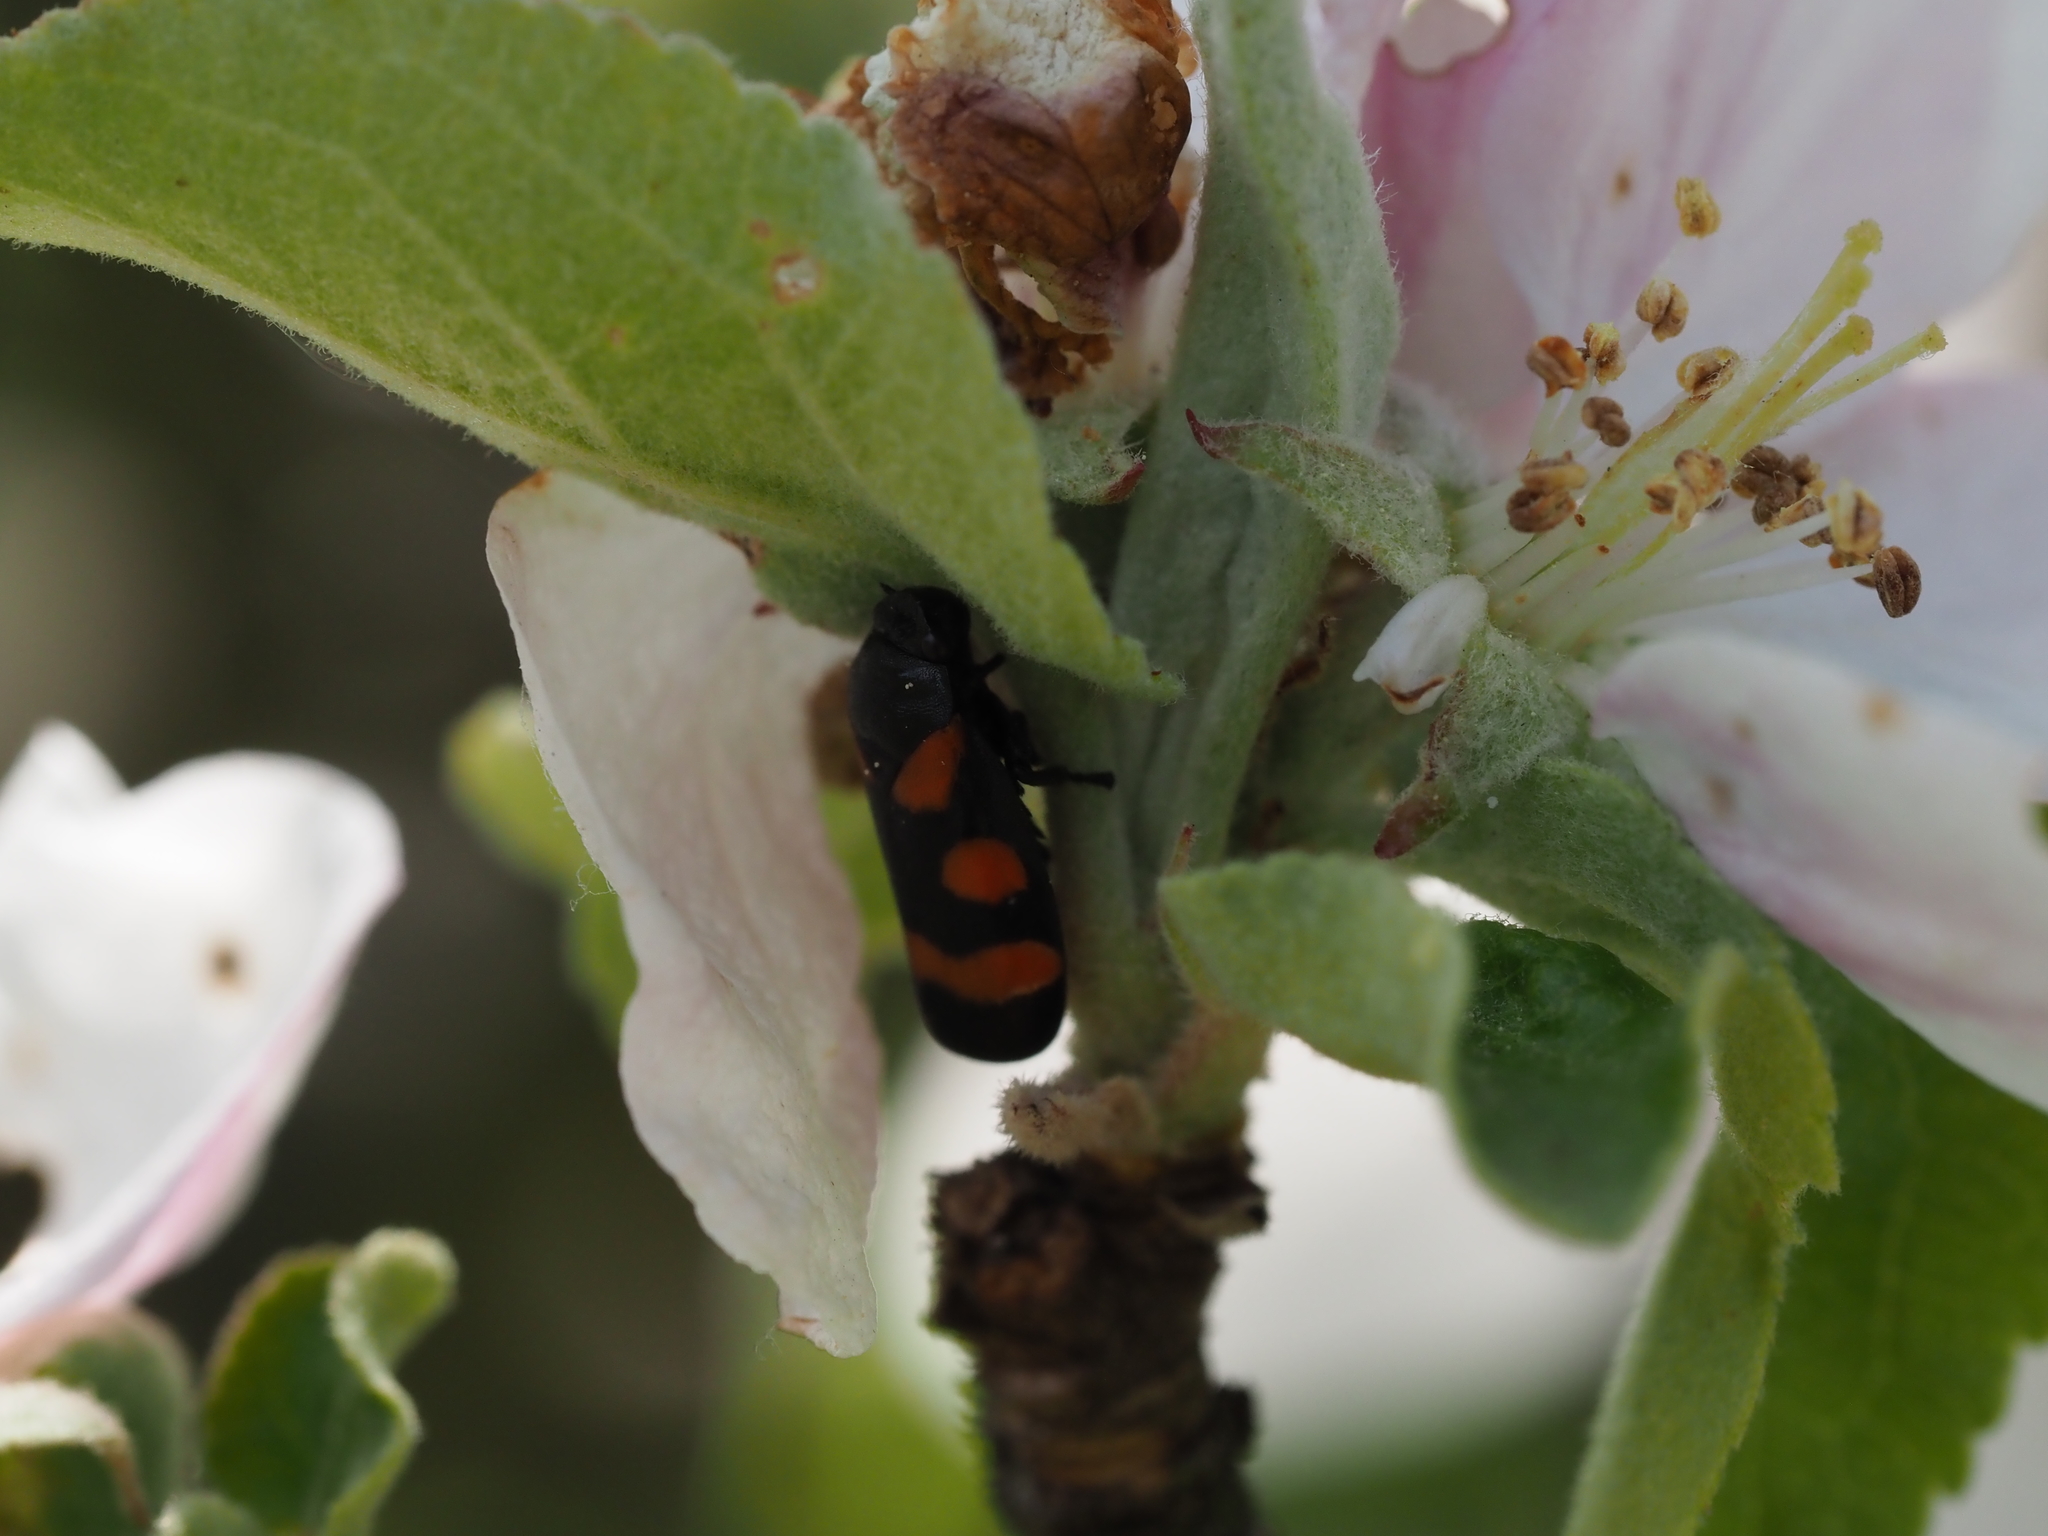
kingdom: Animalia
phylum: Arthropoda
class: Insecta
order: Hemiptera
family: Cercopidae
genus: Cercopis
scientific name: Cercopis sanguinolenta
